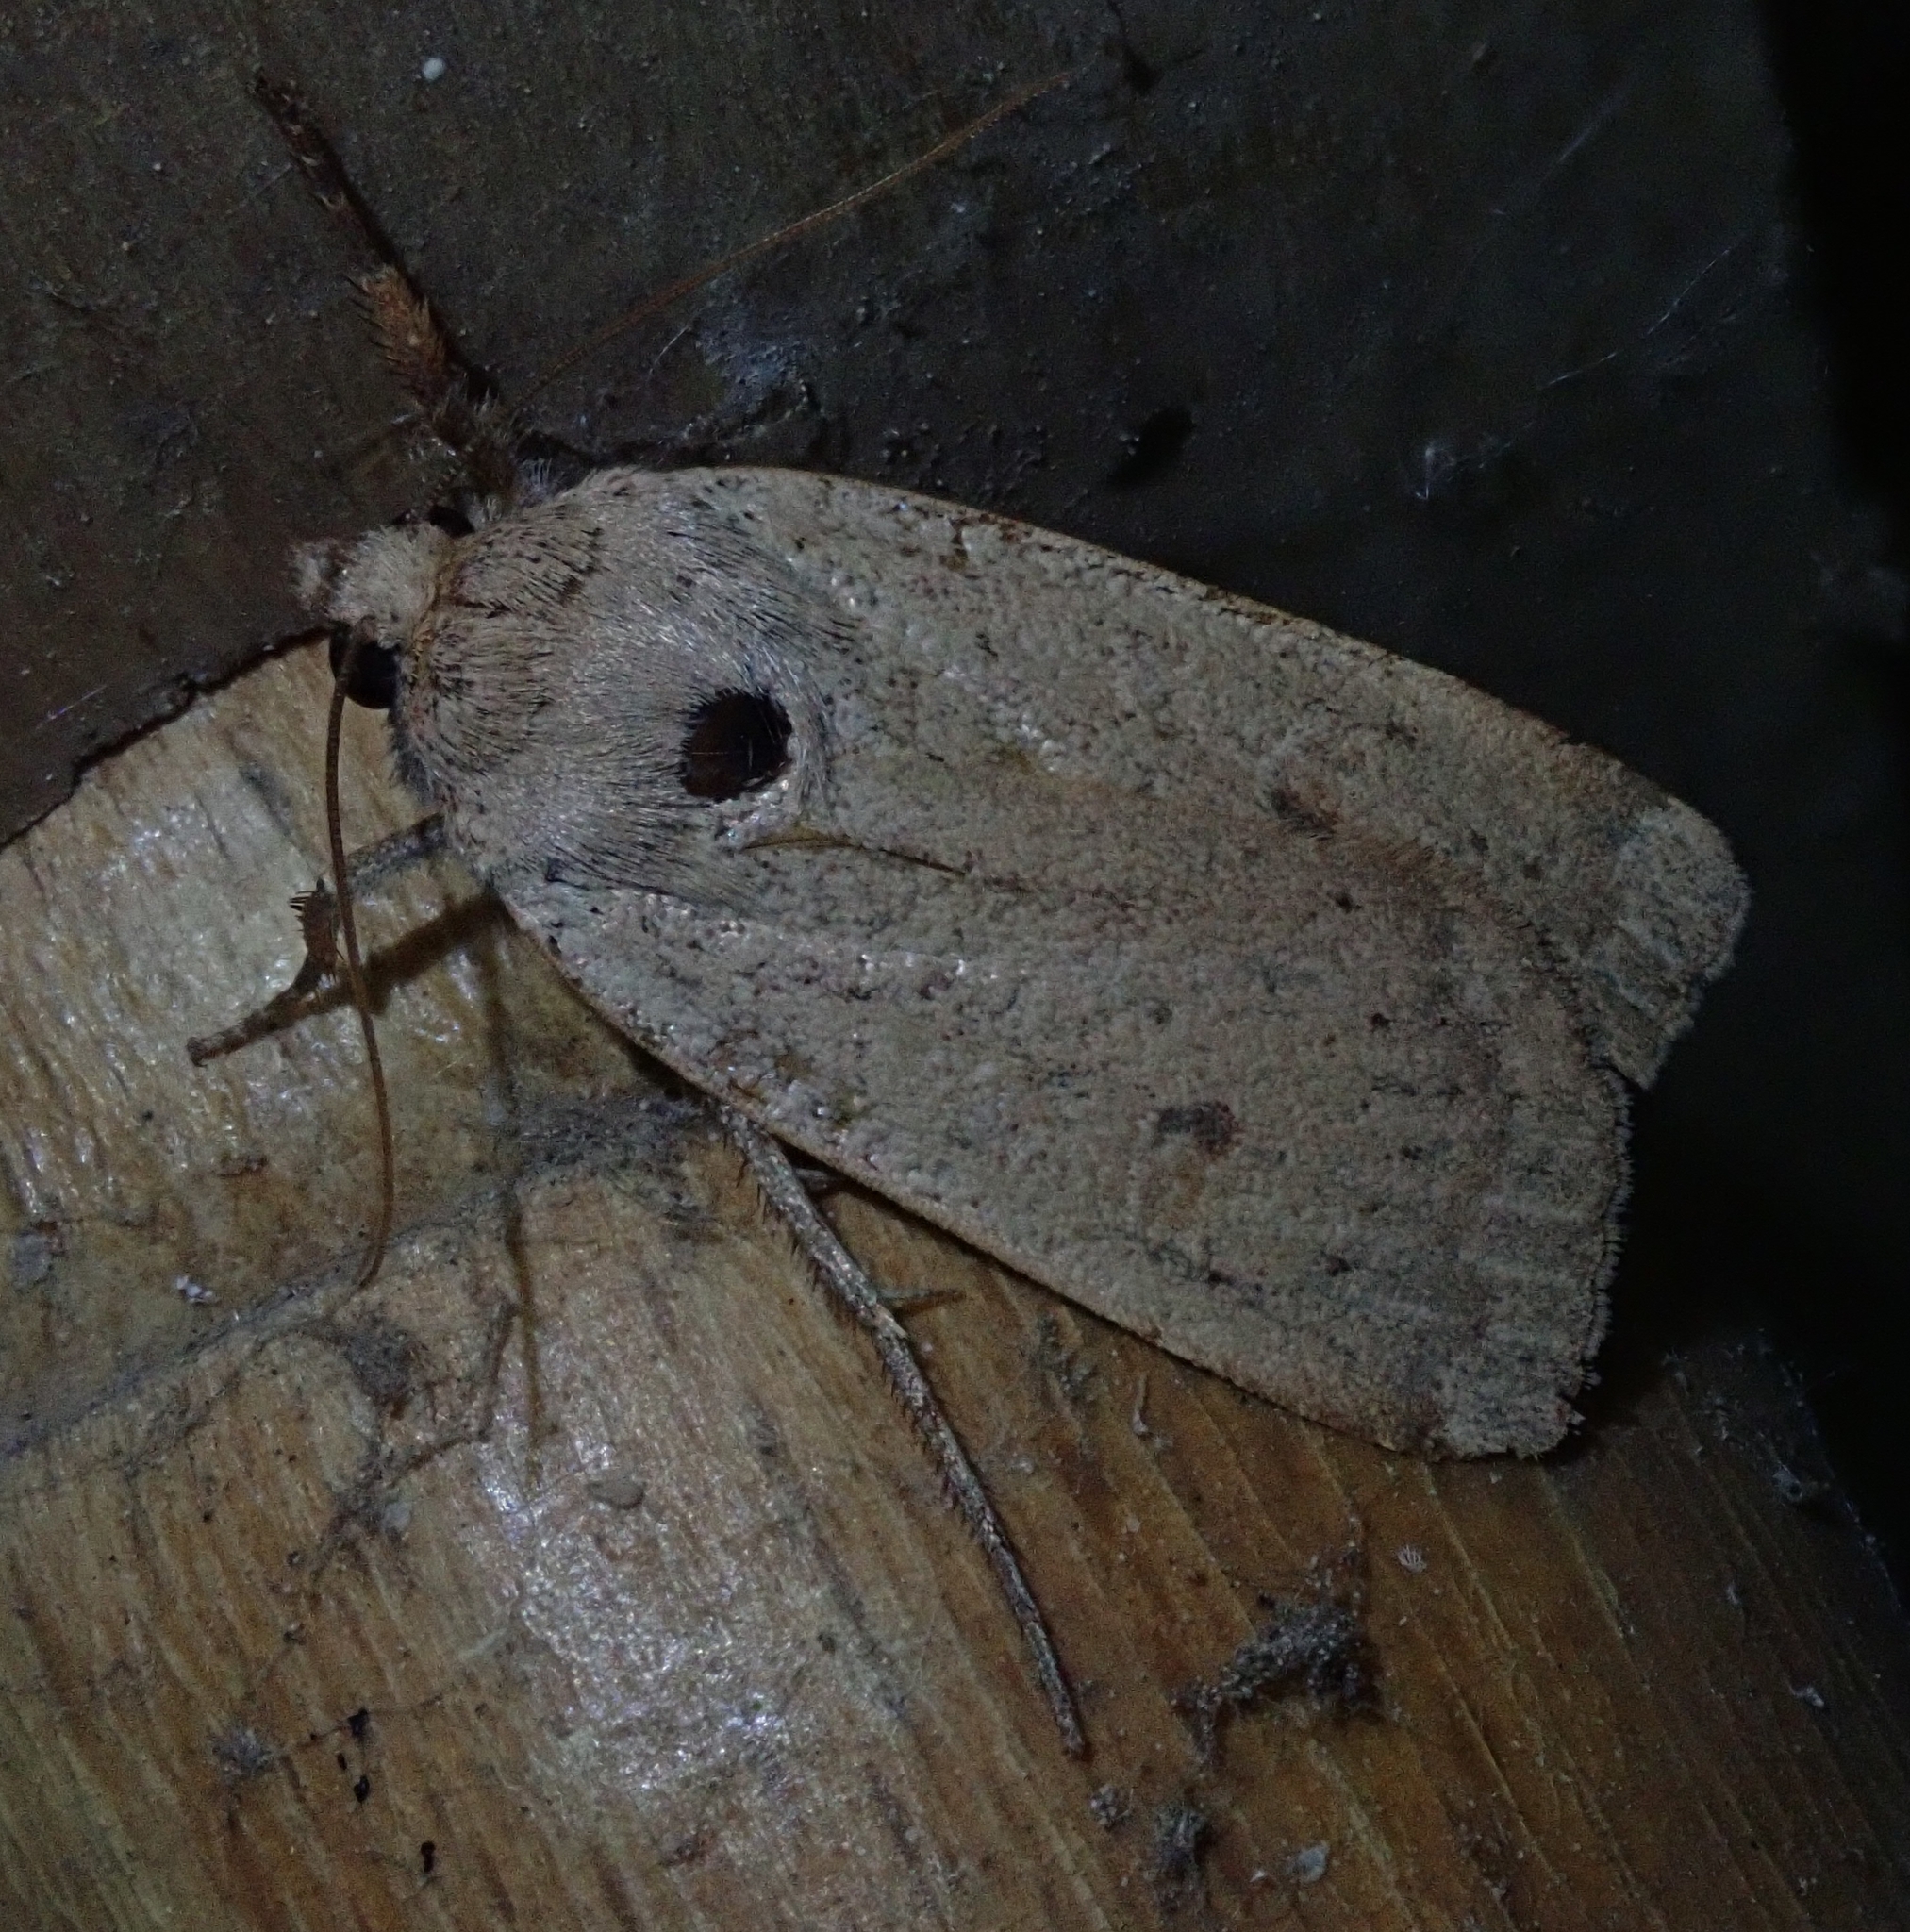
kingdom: Animalia
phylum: Arthropoda
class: Insecta
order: Lepidoptera
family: Noctuidae
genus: Noctua
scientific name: Noctua comes
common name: Lesser yellow underwing
